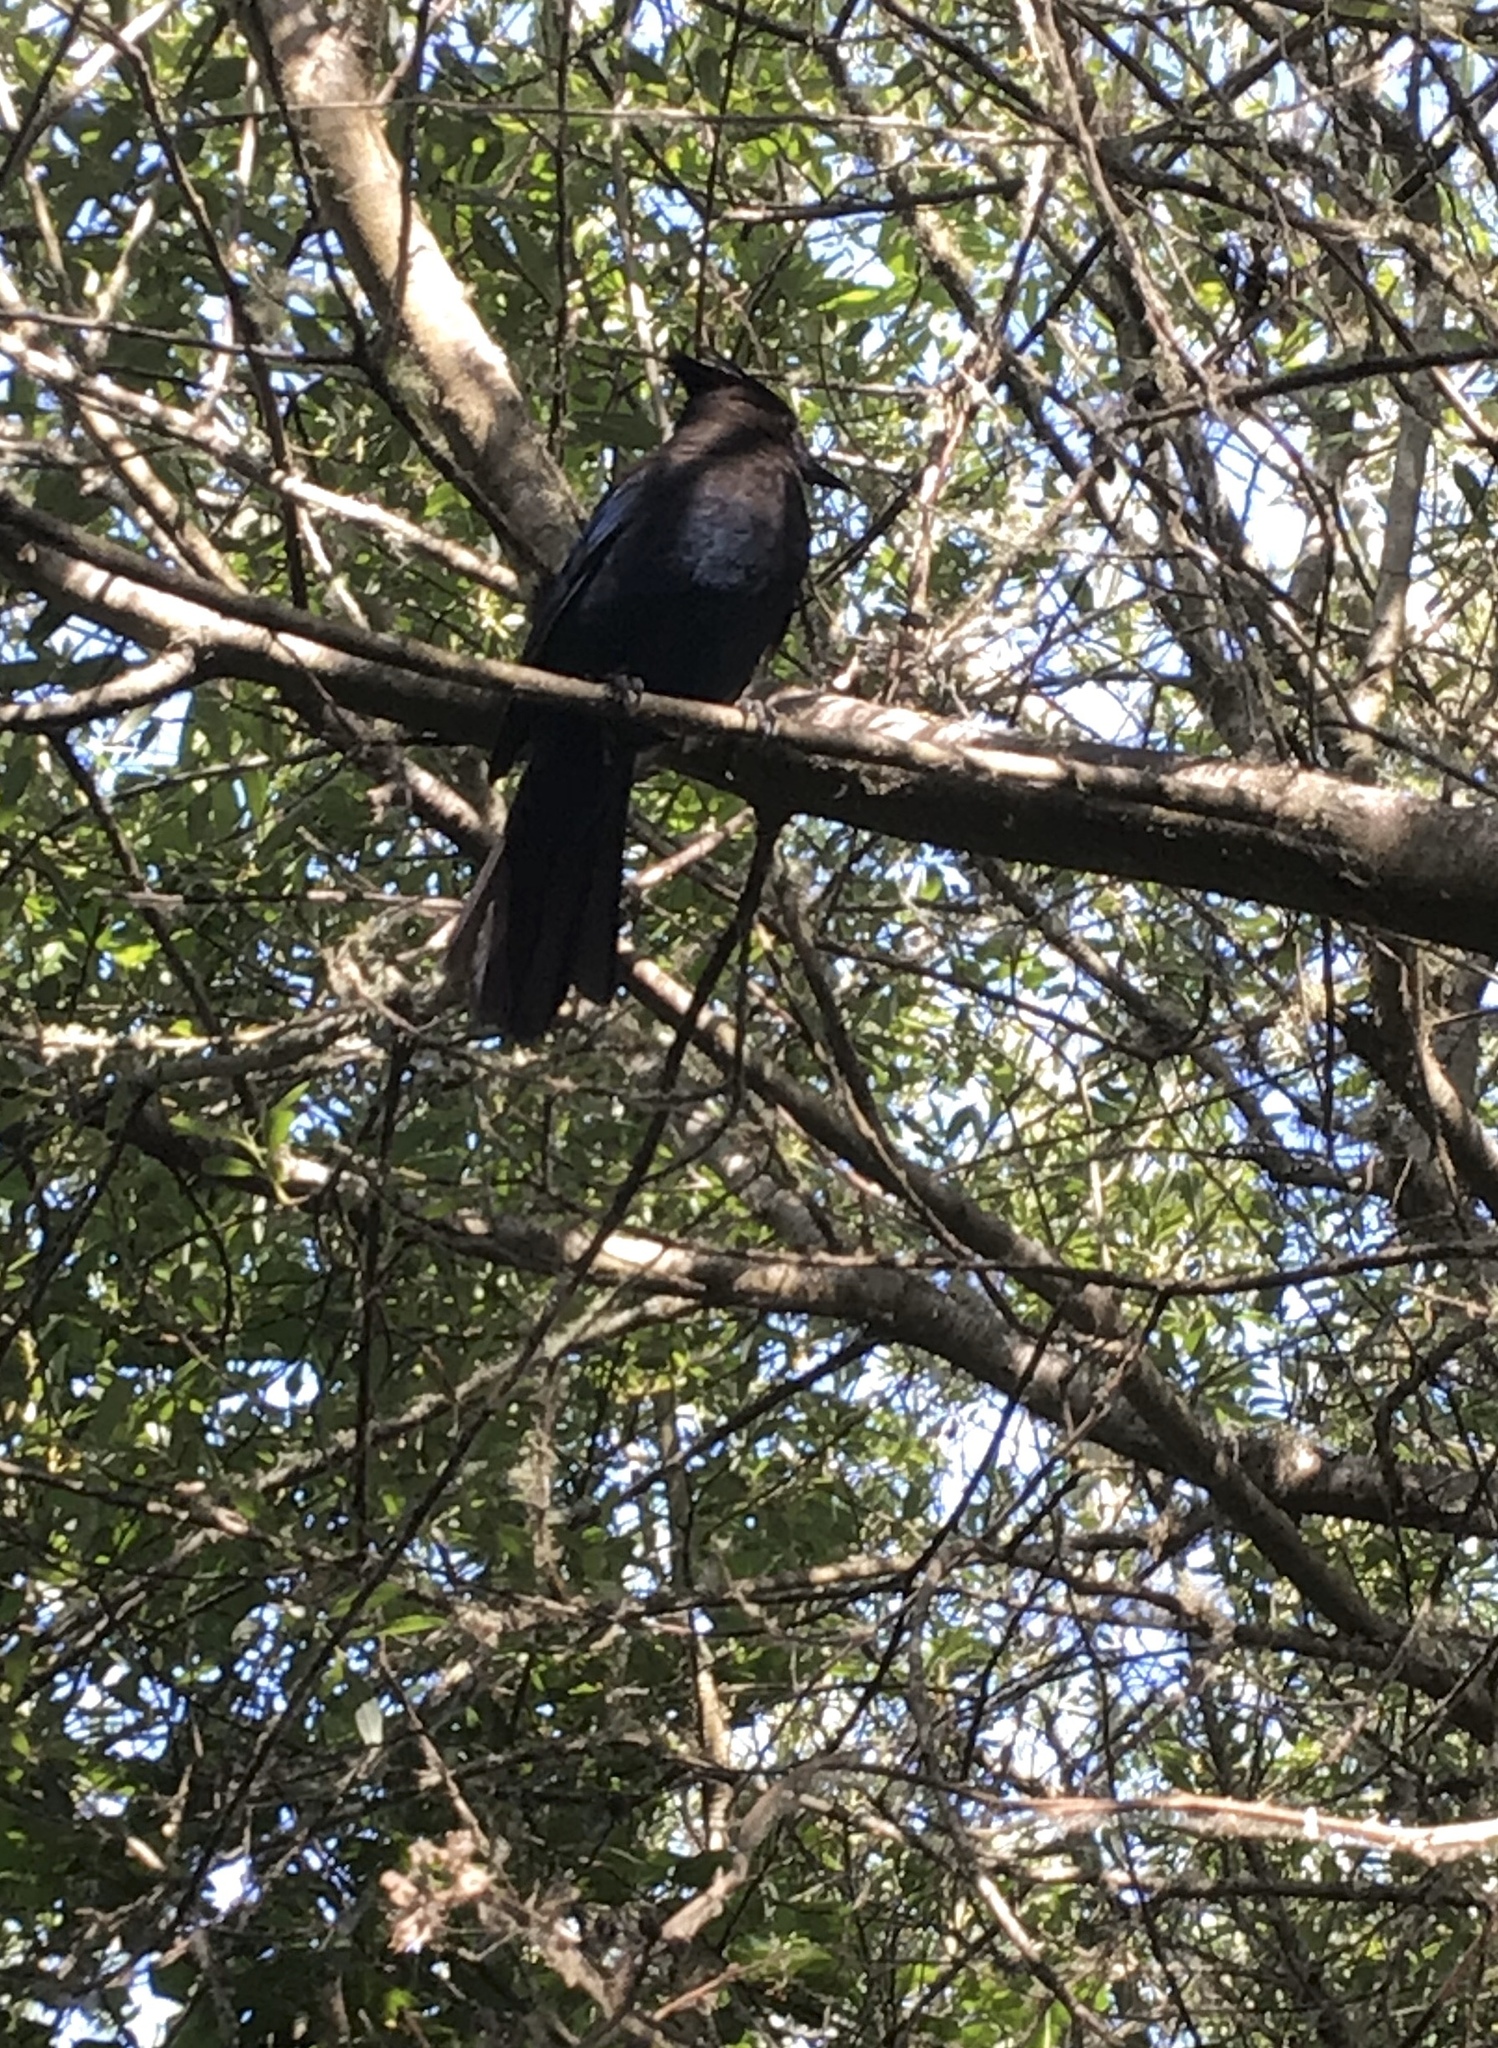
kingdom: Animalia
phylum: Chordata
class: Aves
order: Passeriformes
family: Corvidae
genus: Cyanocitta
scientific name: Cyanocitta stelleri
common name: Steller's jay
